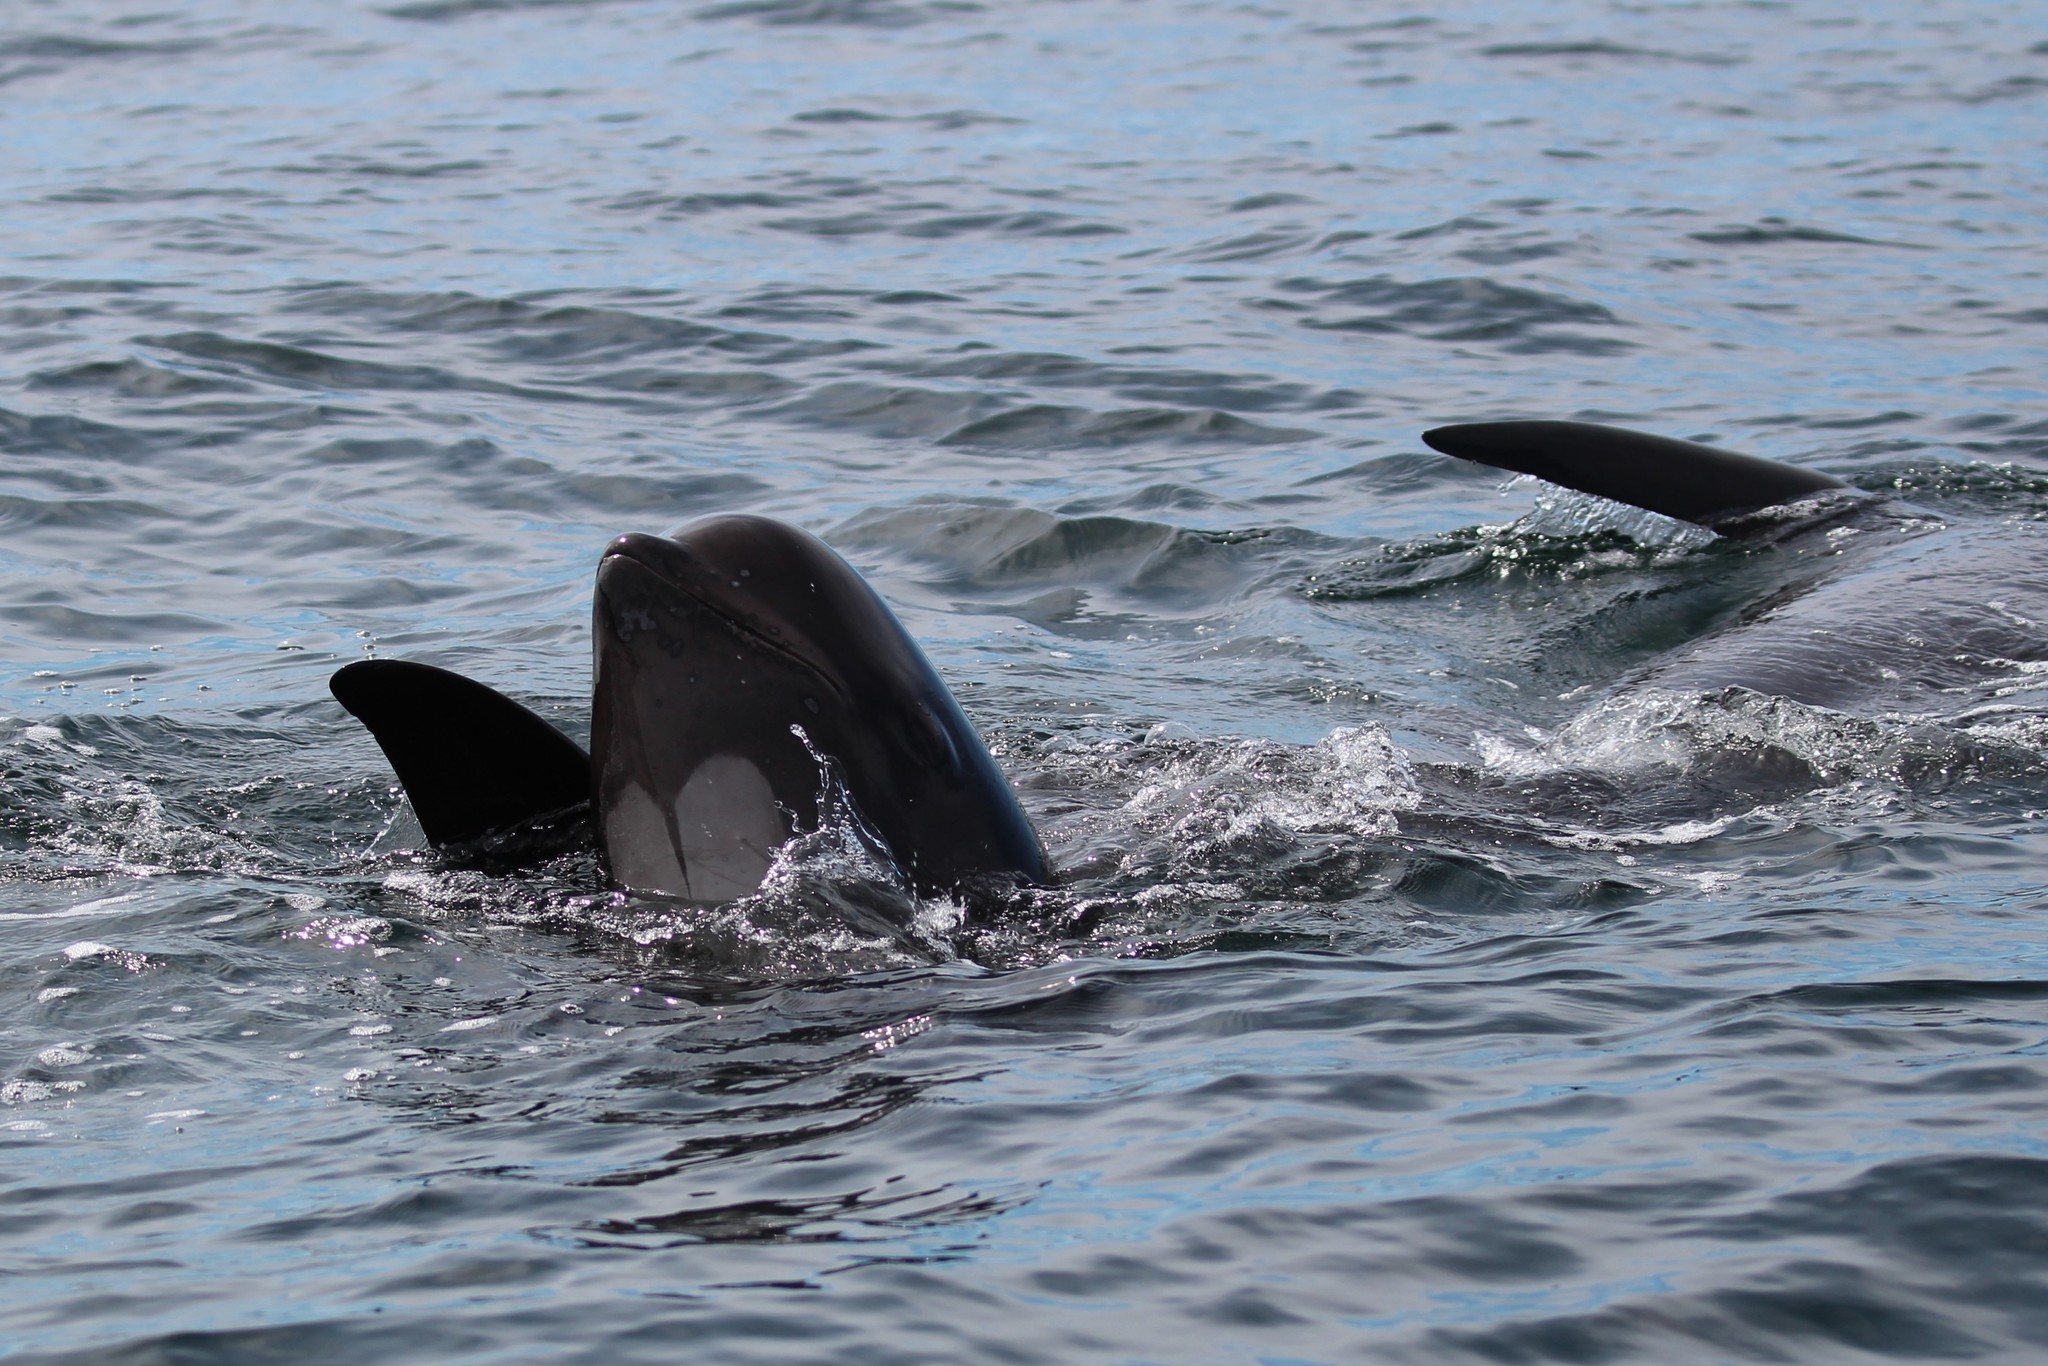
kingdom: Animalia
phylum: Chordata
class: Mammalia
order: Cetacea
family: Delphinidae
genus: Globicephala
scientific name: Globicephala melas
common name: Long-finned pilot whale
